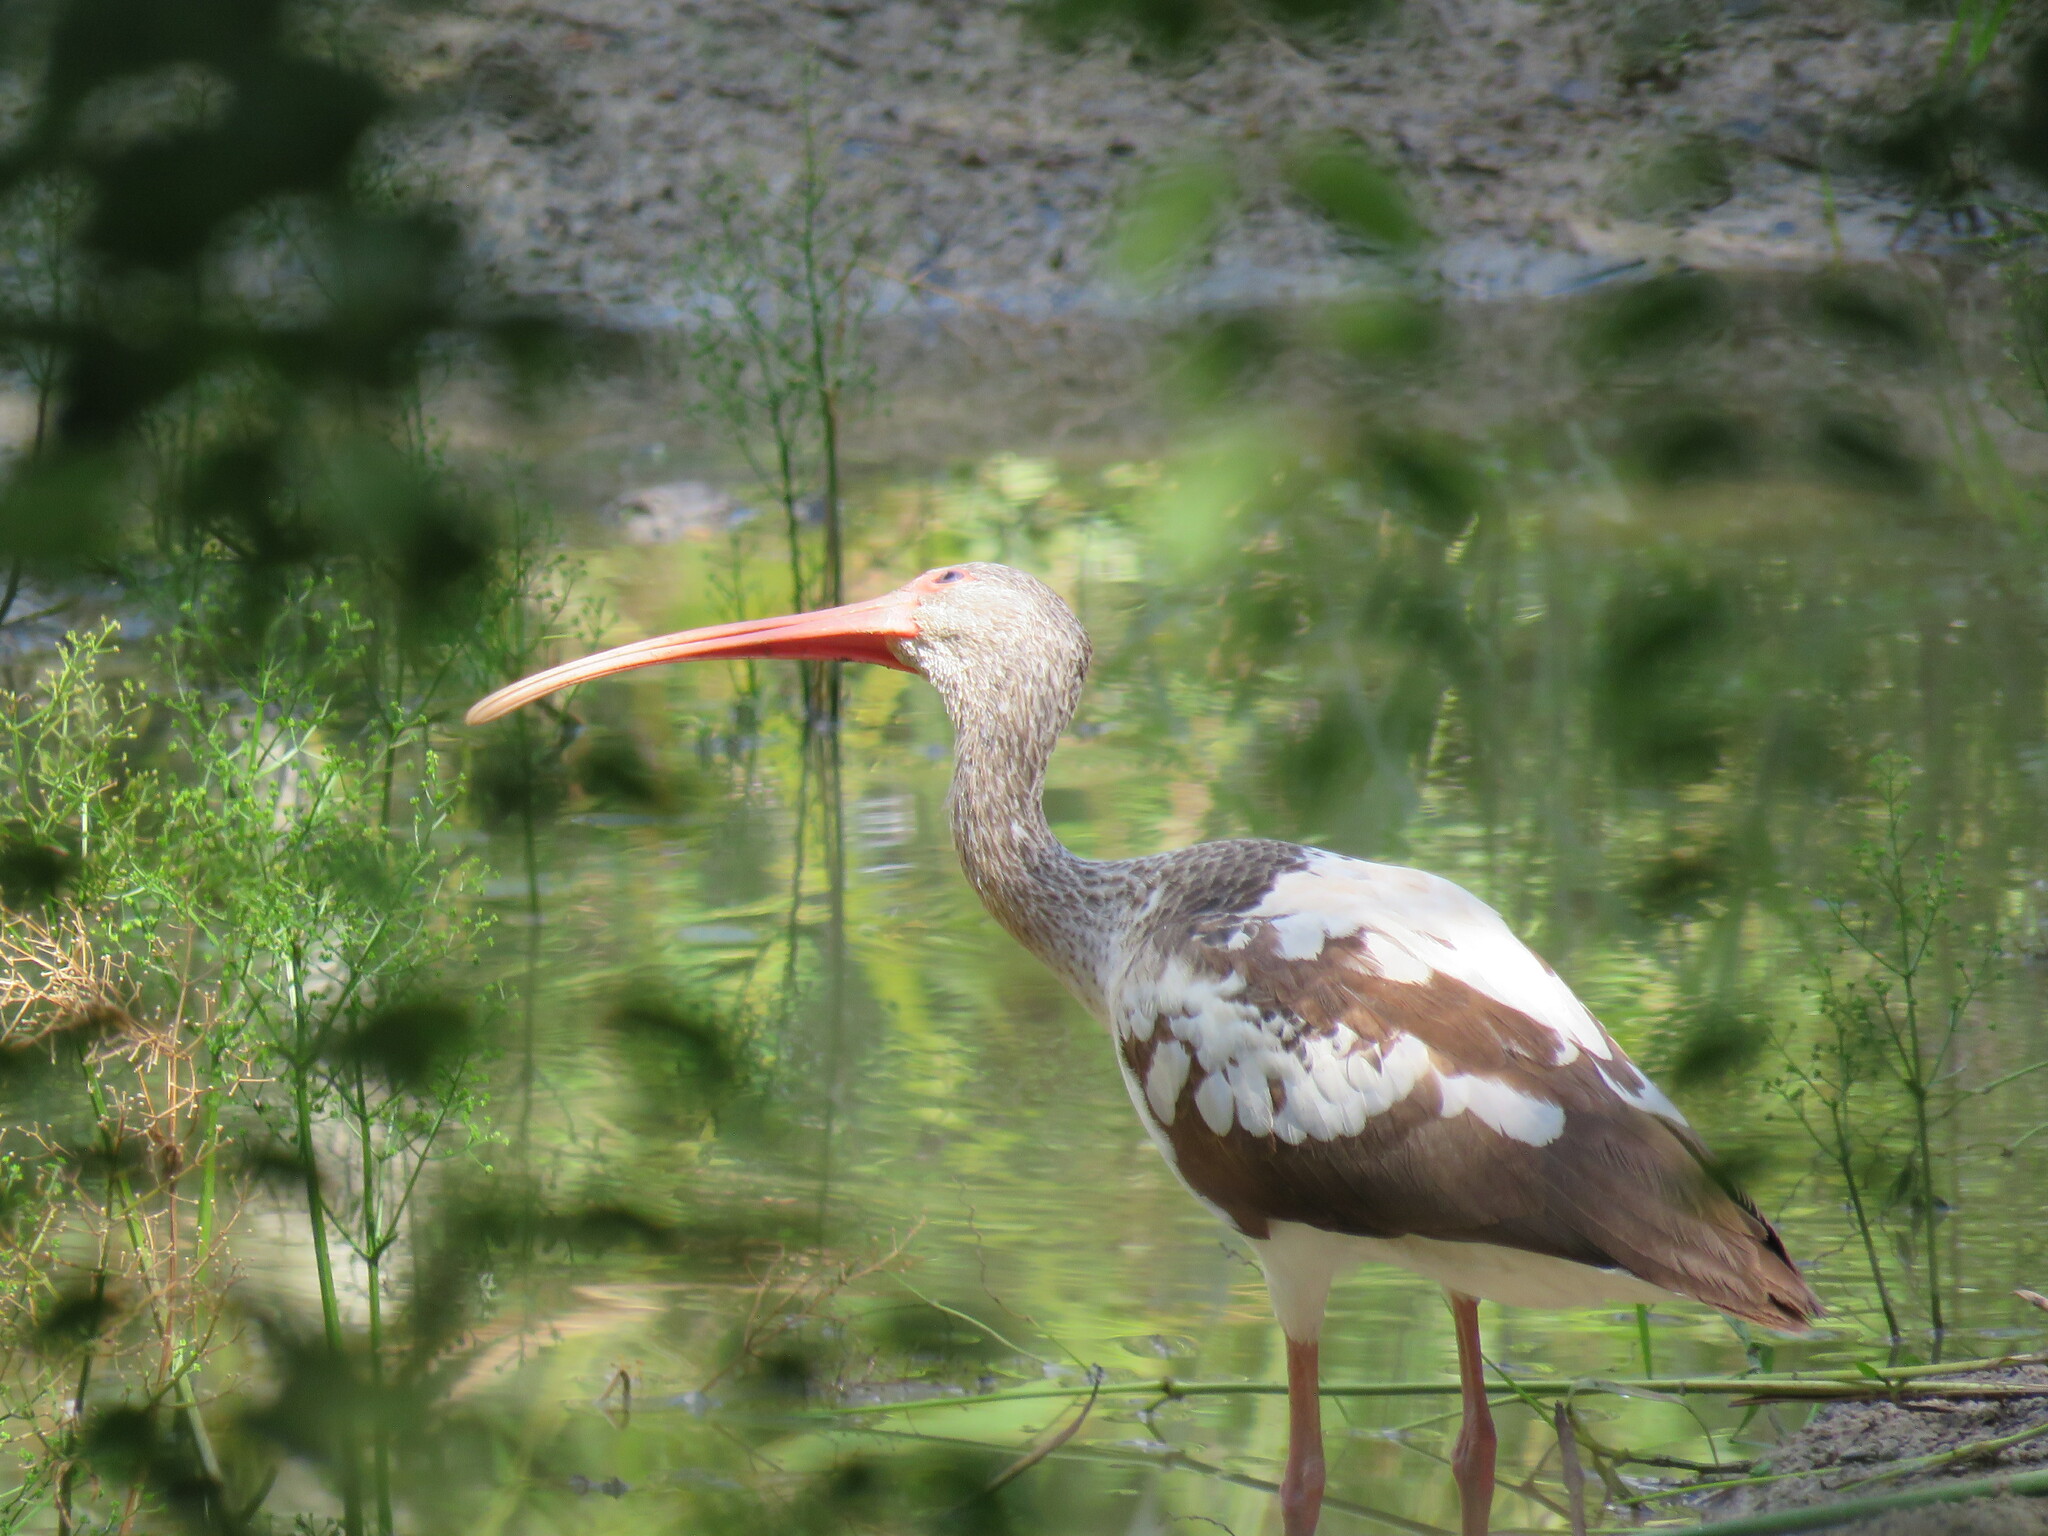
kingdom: Animalia
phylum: Chordata
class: Aves
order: Pelecaniformes
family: Threskiornithidae
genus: Eudocimus
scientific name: Eudocimus albus
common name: White ibis
